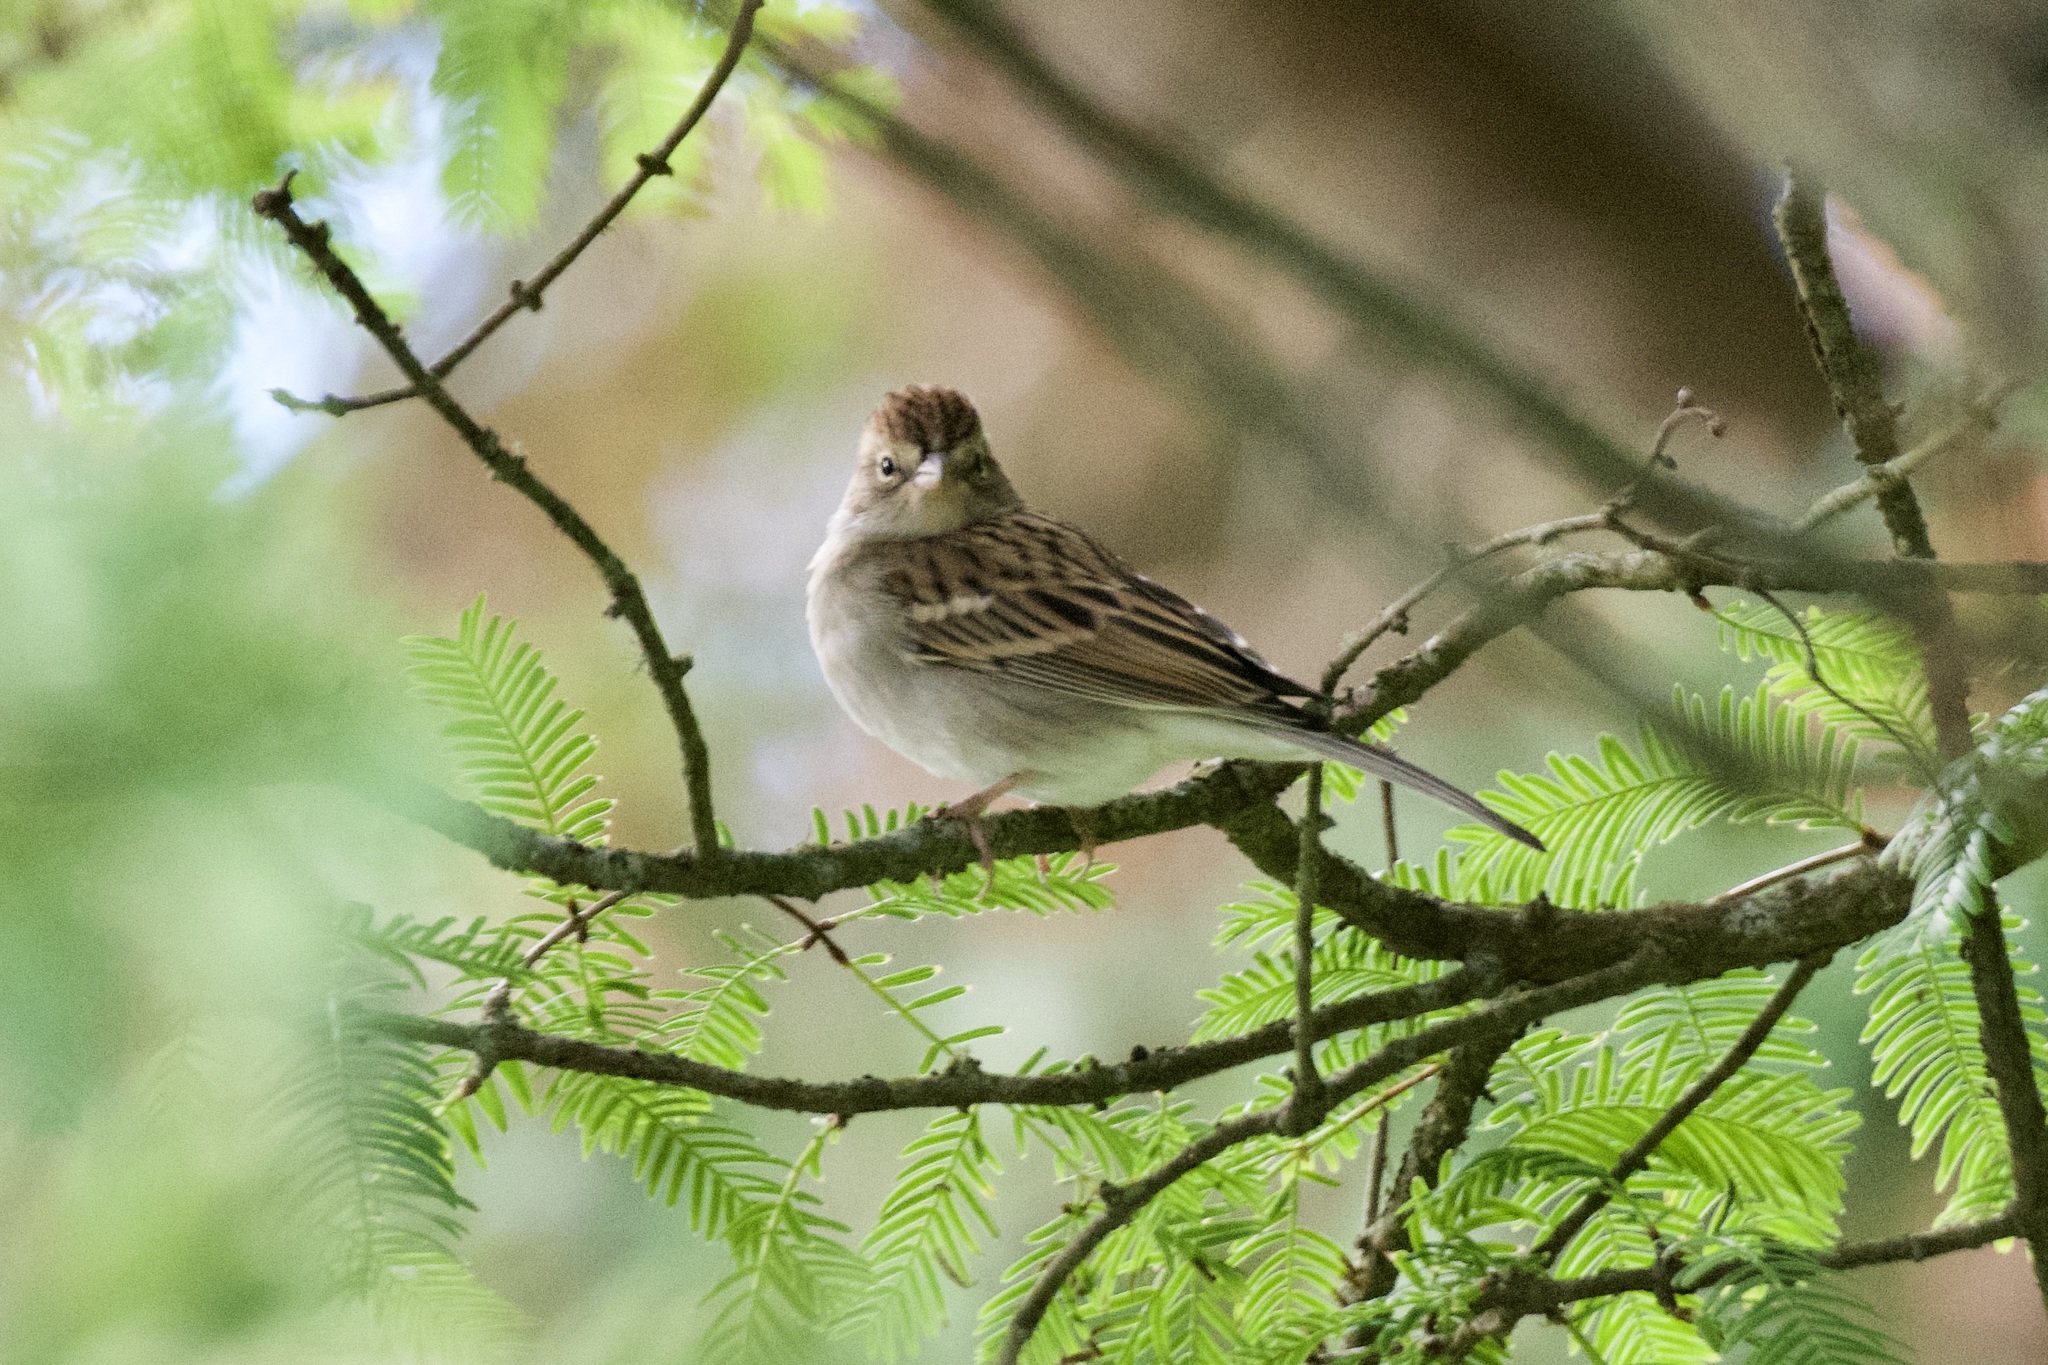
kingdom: Animalia
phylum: Chordata
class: Aves
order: Passeriformes
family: Passerellidae
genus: Spizella
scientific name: Spizella passerina
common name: Chipping sparrow
